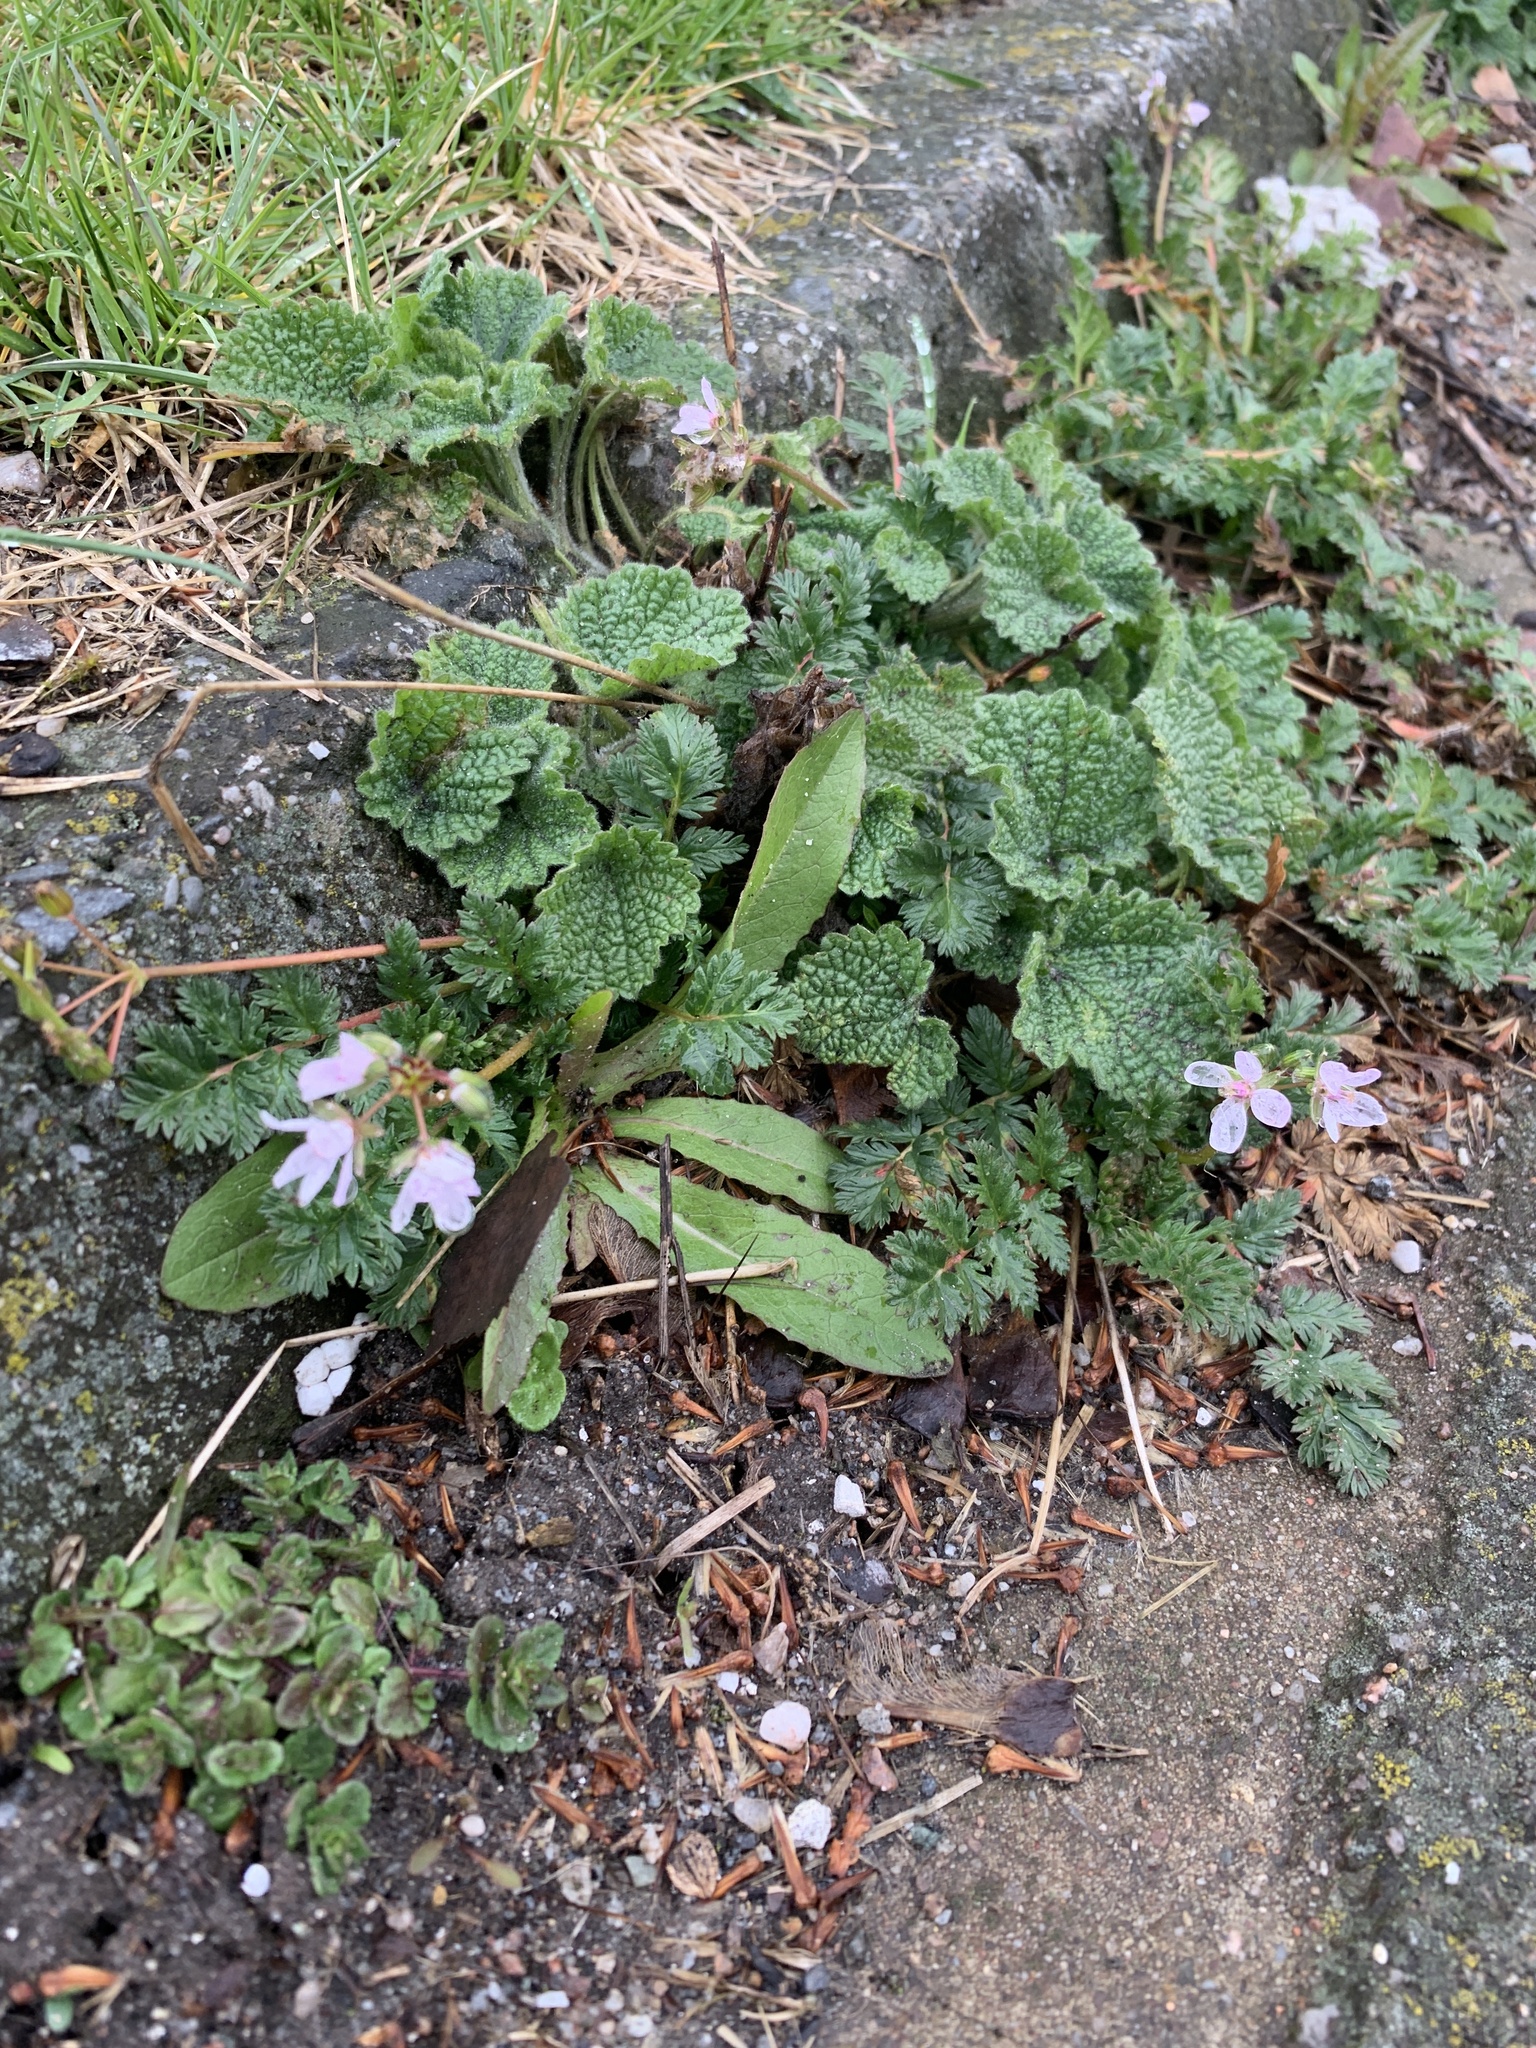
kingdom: Plantae
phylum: Tracheophyta
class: Magnoliopsida
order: Geraniales
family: Geraniaceae
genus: Erodium
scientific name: Erodium cicutarium
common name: Common stork's-bill
